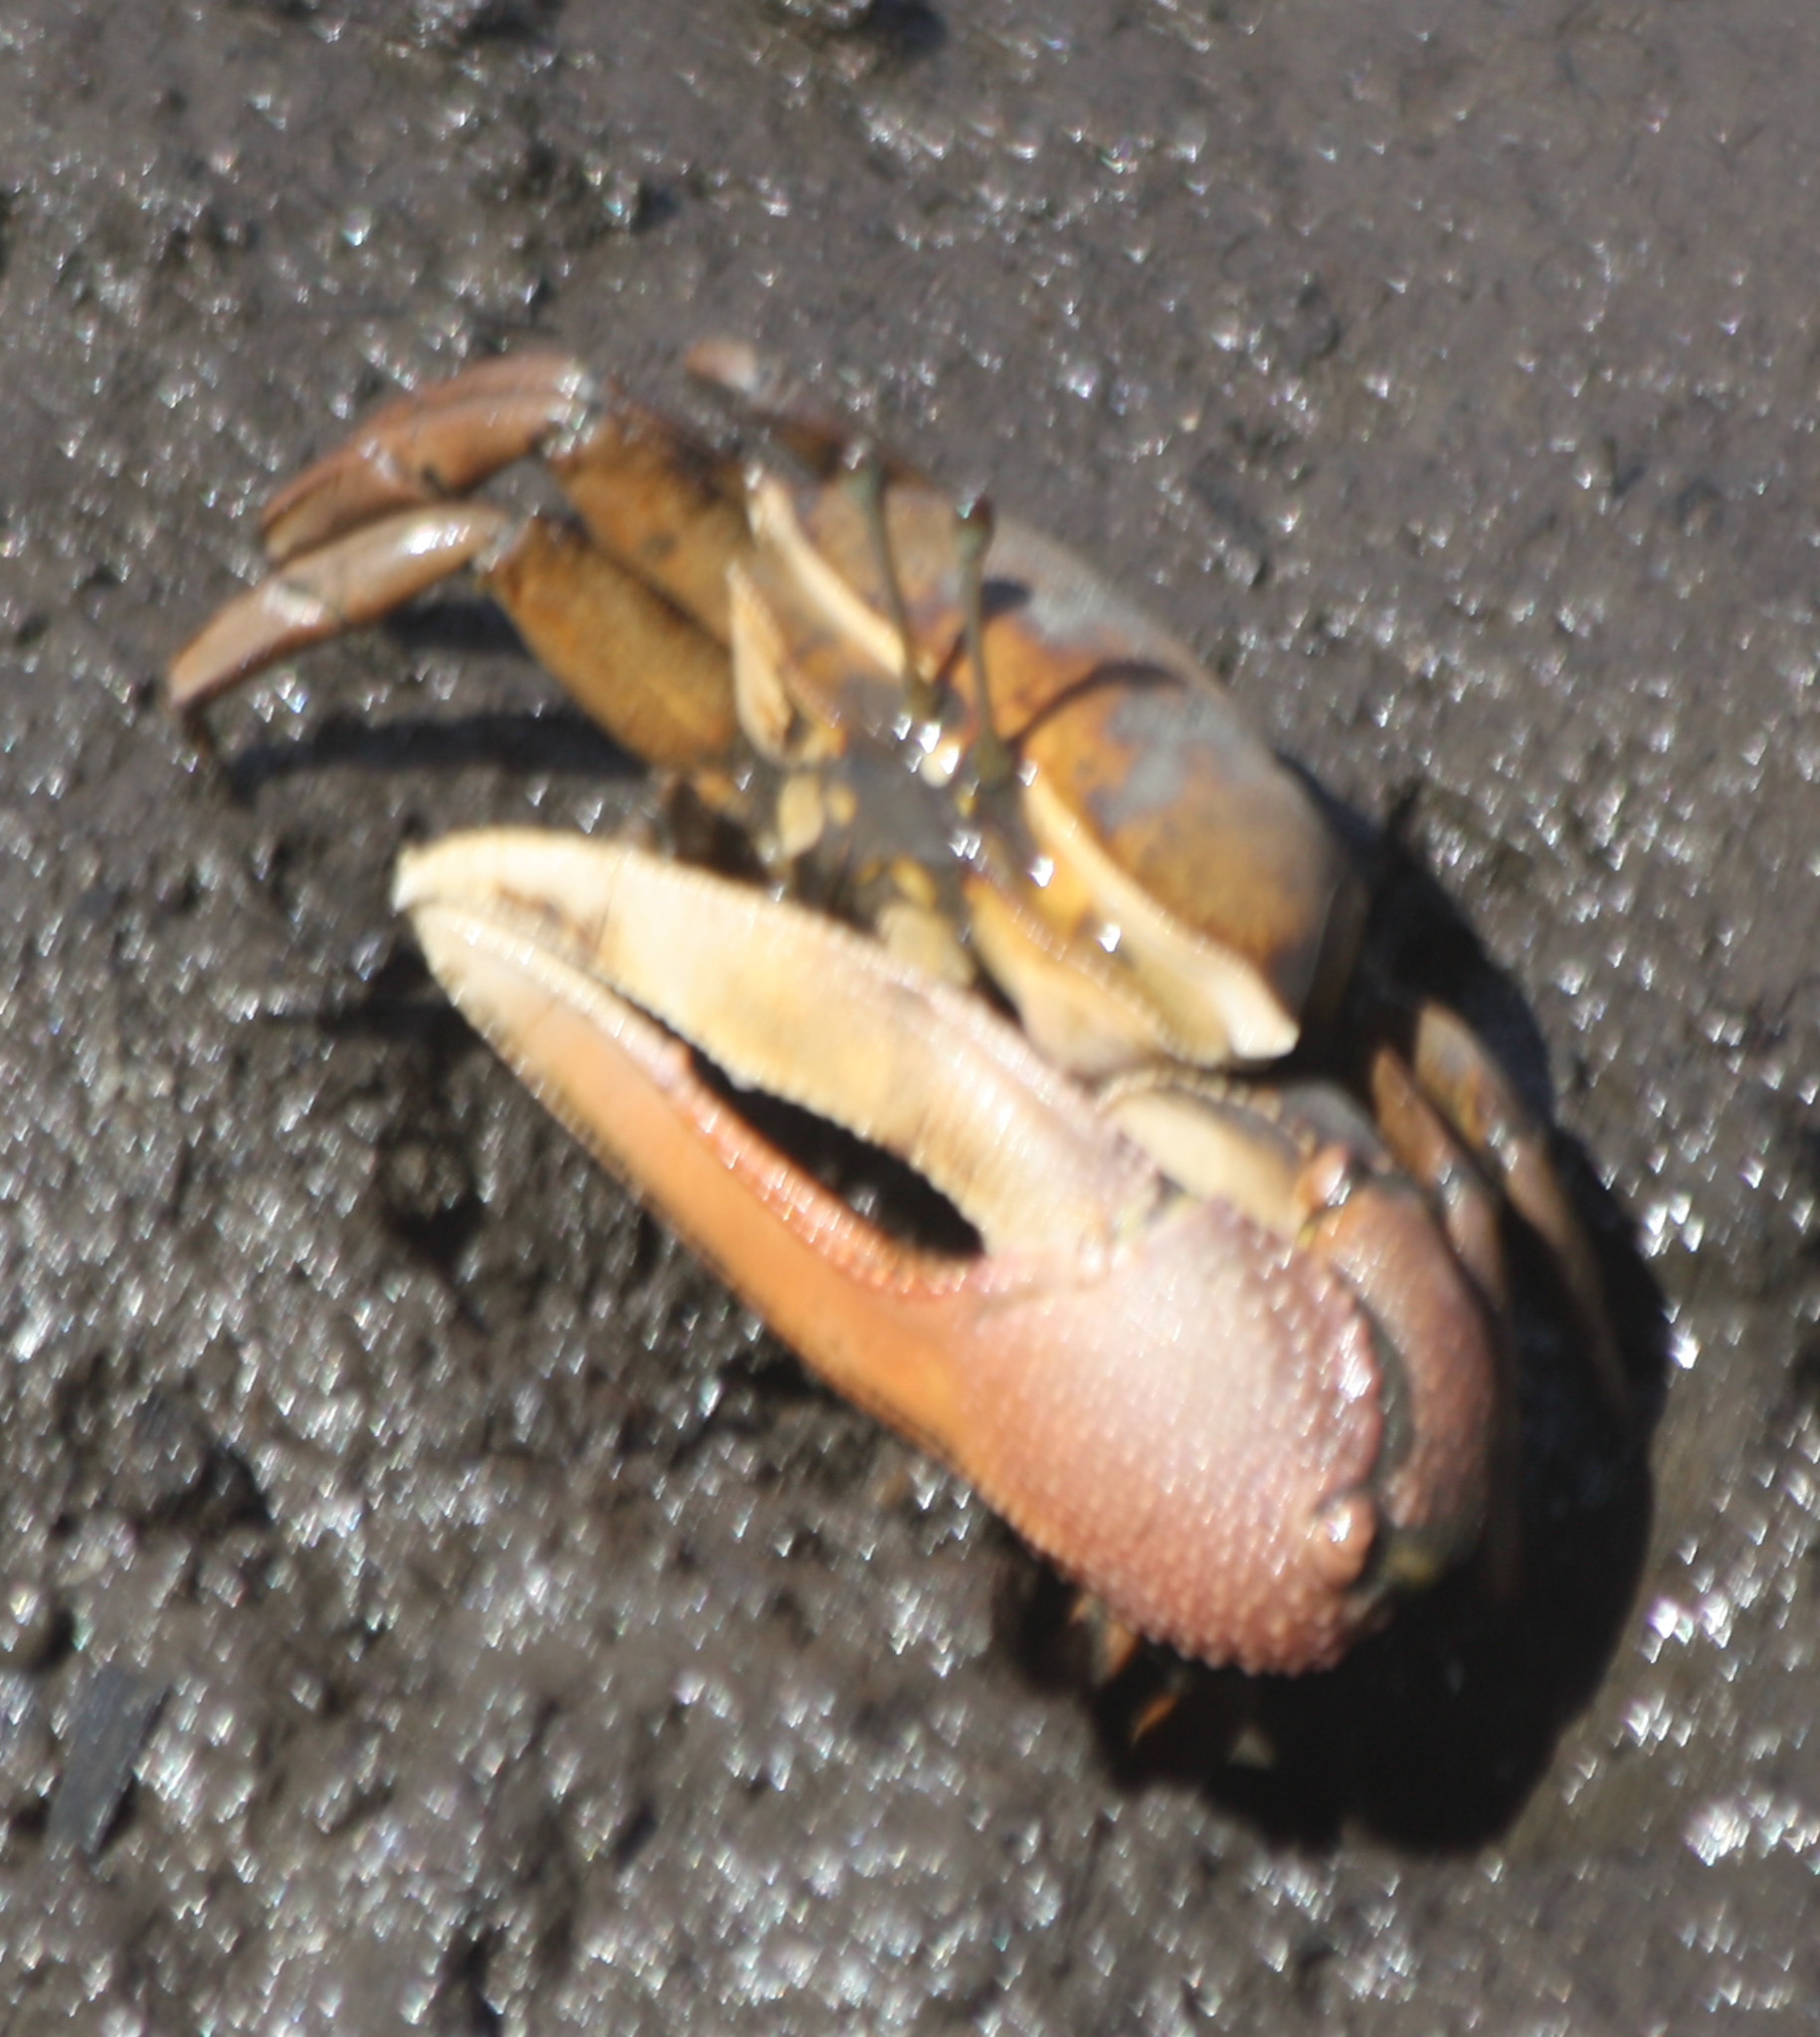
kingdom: Animalia
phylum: Arthropoda
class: Malacostraca
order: Decapoda
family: Ocypodidae
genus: Uca
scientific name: Uca princeps
